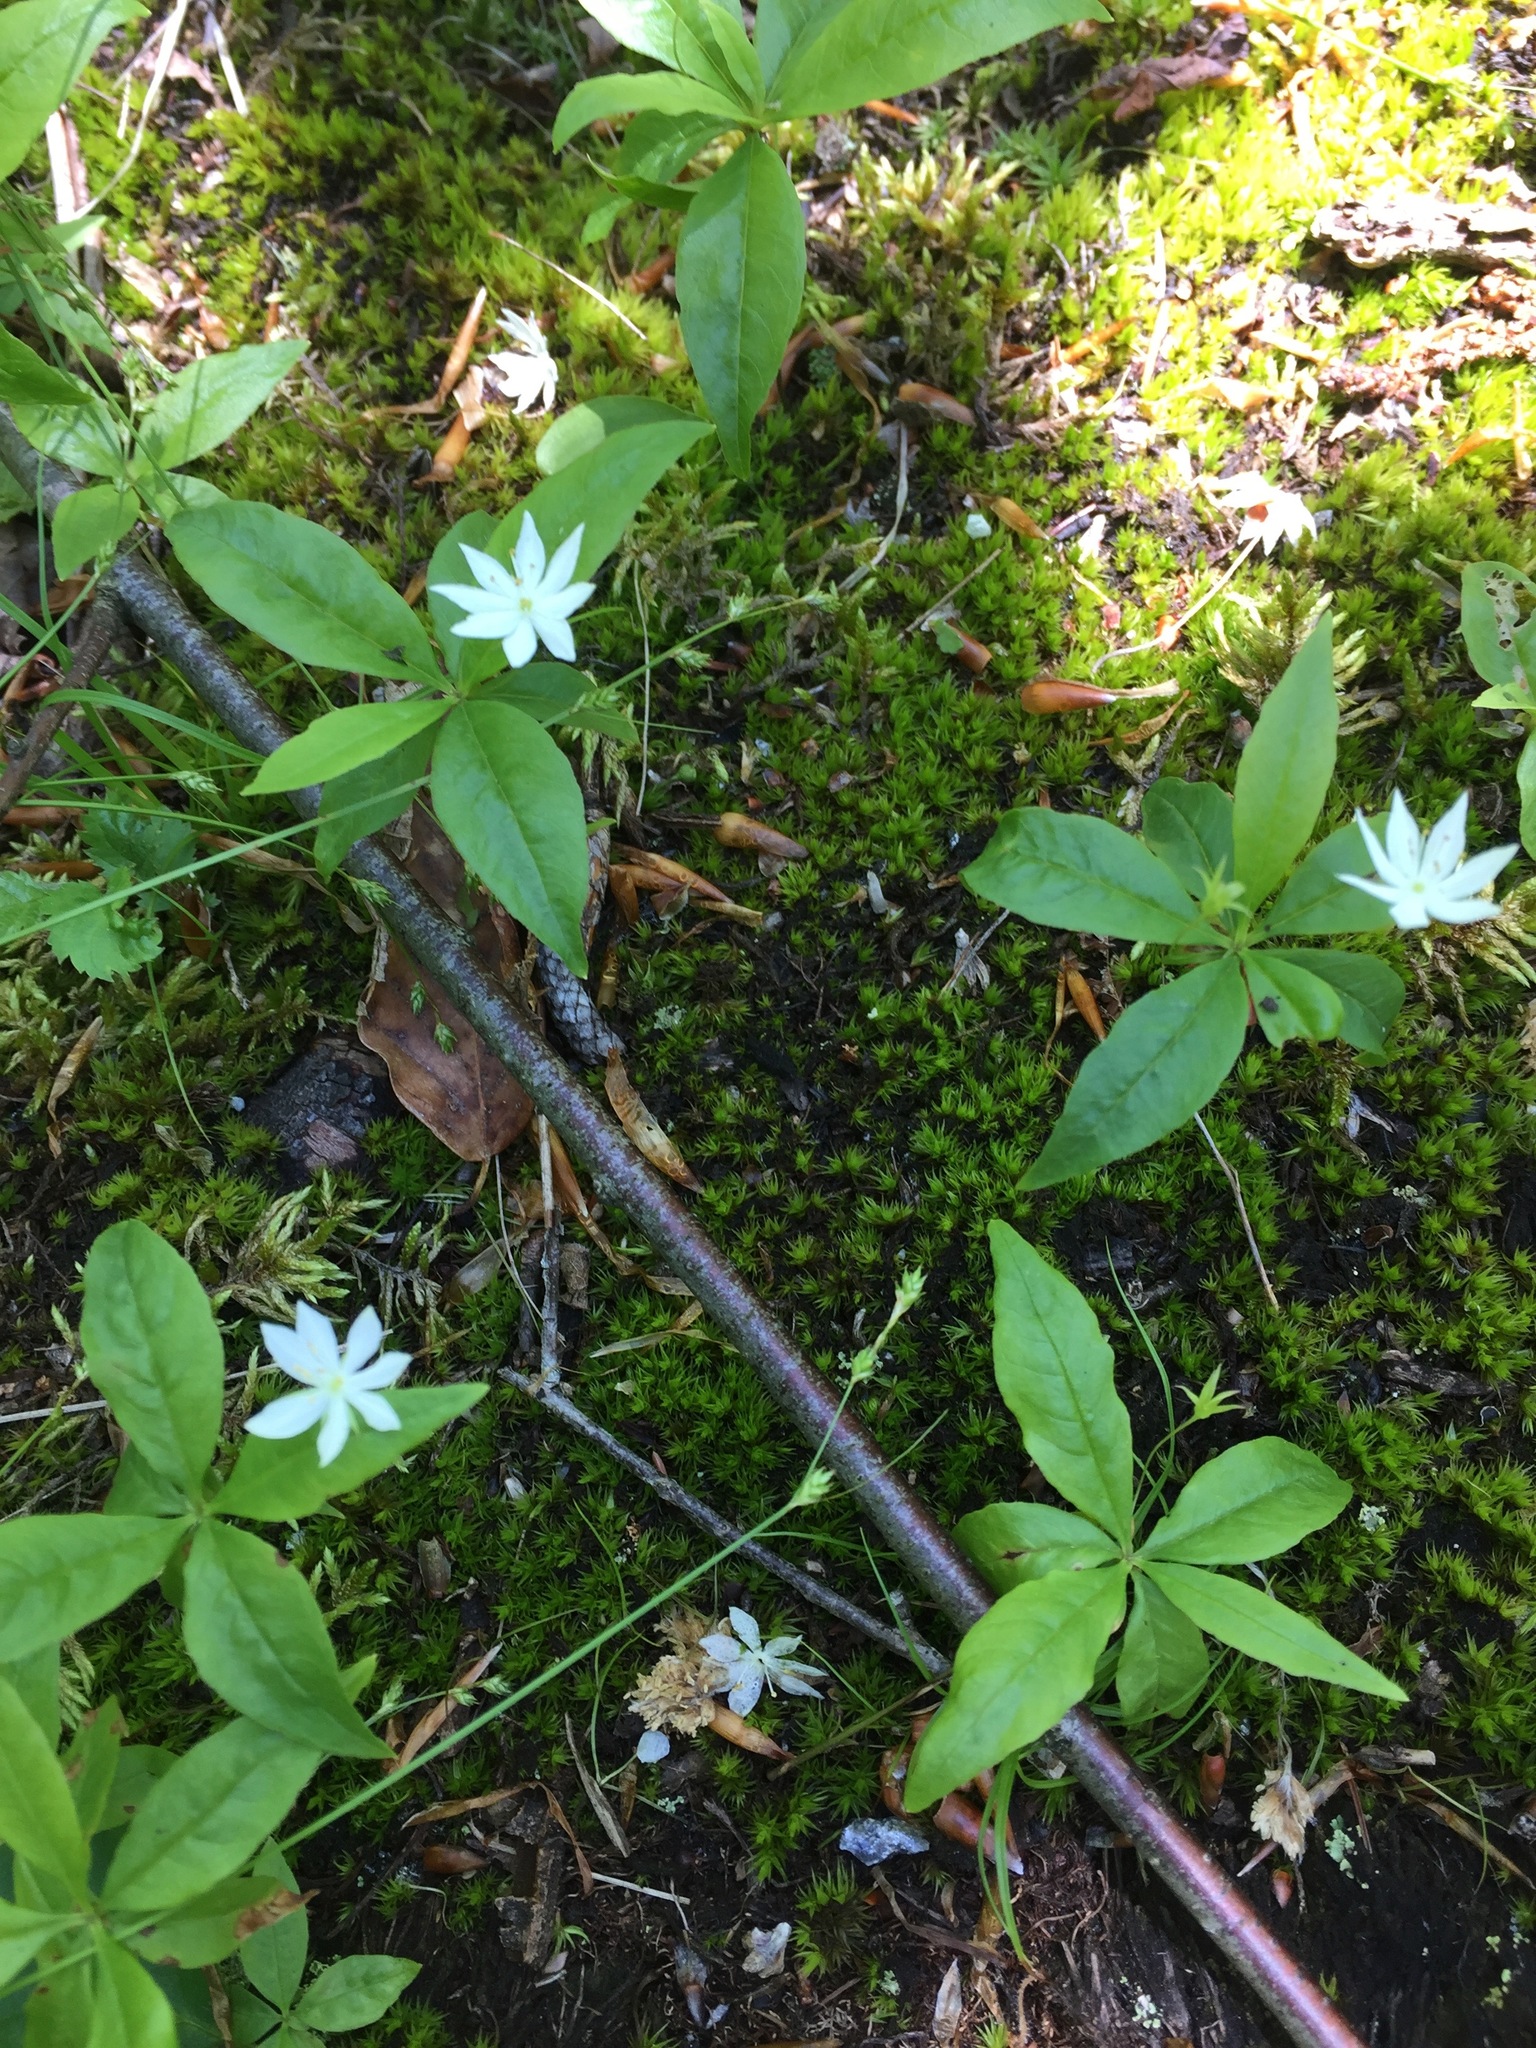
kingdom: Plantae
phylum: Tracheophyta
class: Magnoliopsida
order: Ericales
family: Primulaceae
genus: Lysimachia
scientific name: Lysimachia borealis
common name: American starflower
